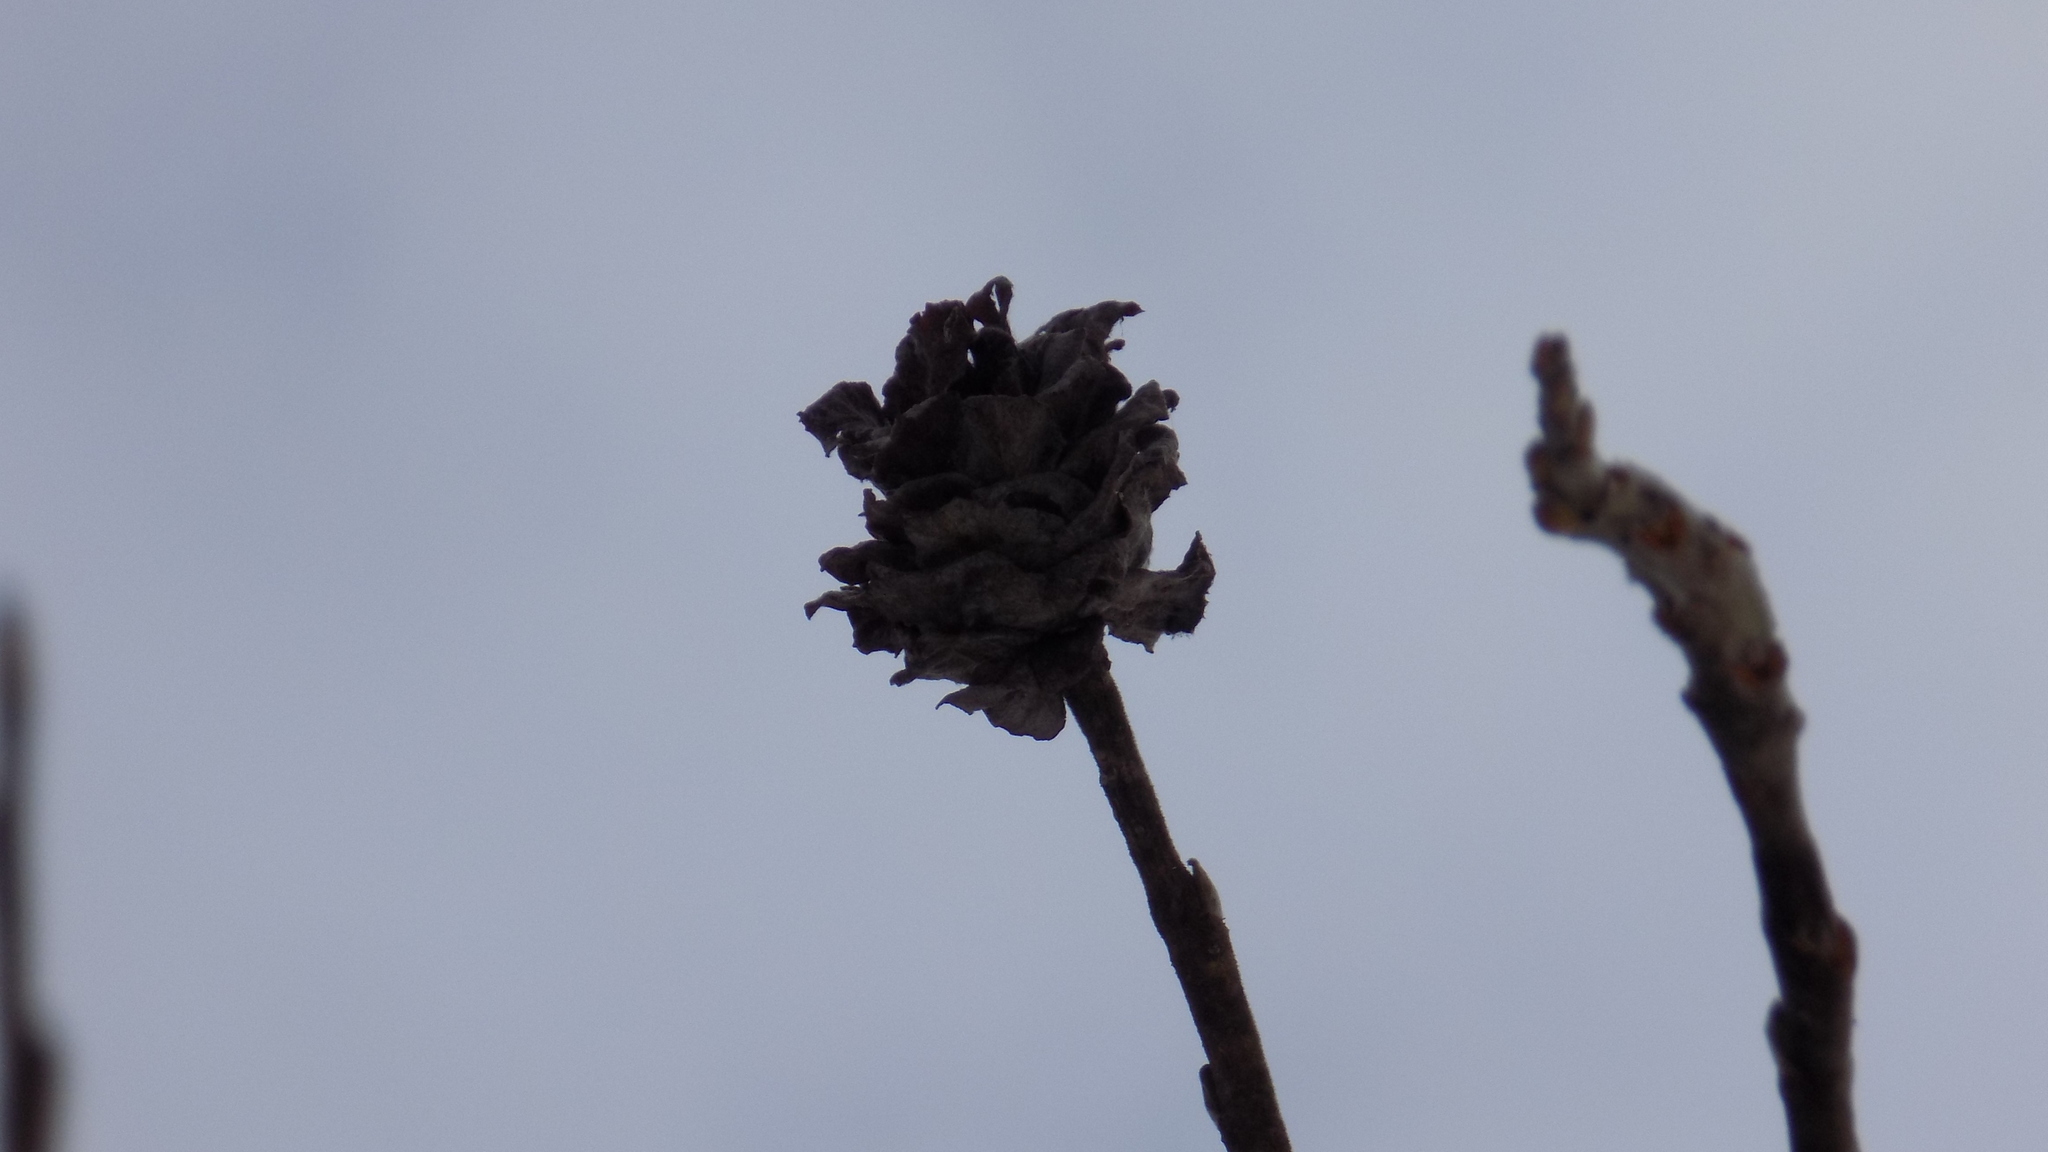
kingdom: Animalia
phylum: Arthropoda
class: Insecta
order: Diptera
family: Cecidomyiidae
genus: Rabdophaga
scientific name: Rabdophaga rosaria
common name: Willow rose gall midge
